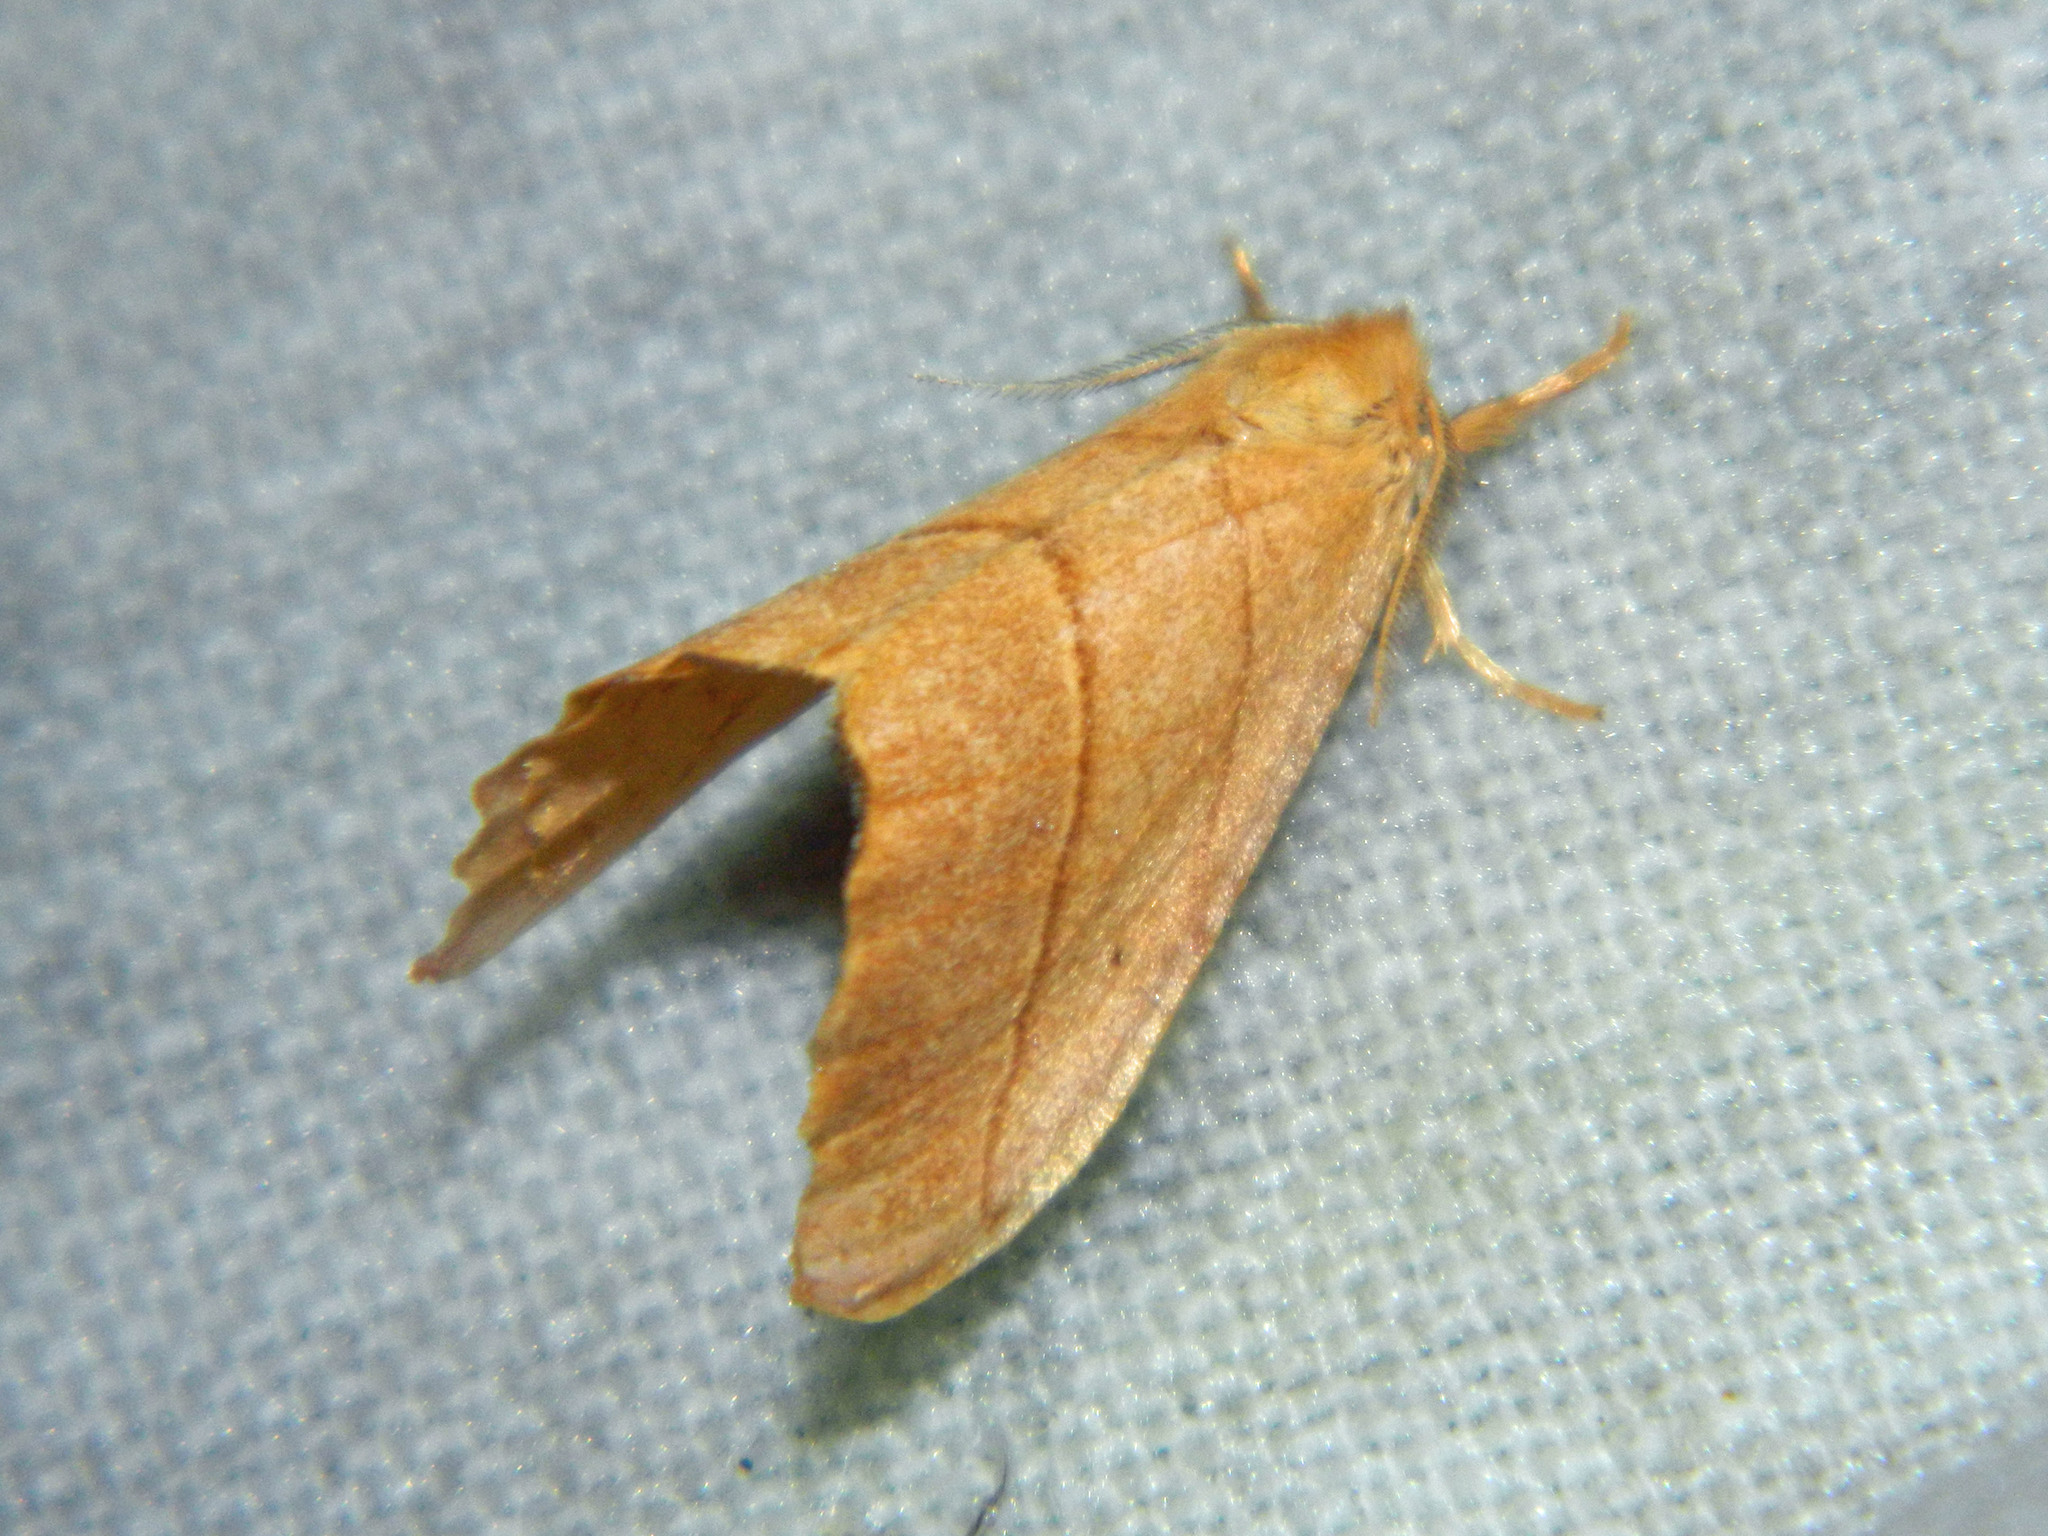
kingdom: Animalia
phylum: Arthropoda
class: Insecta
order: Lepidoptera
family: Drepanidae
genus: Falcaria
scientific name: Falcaria bilineata
